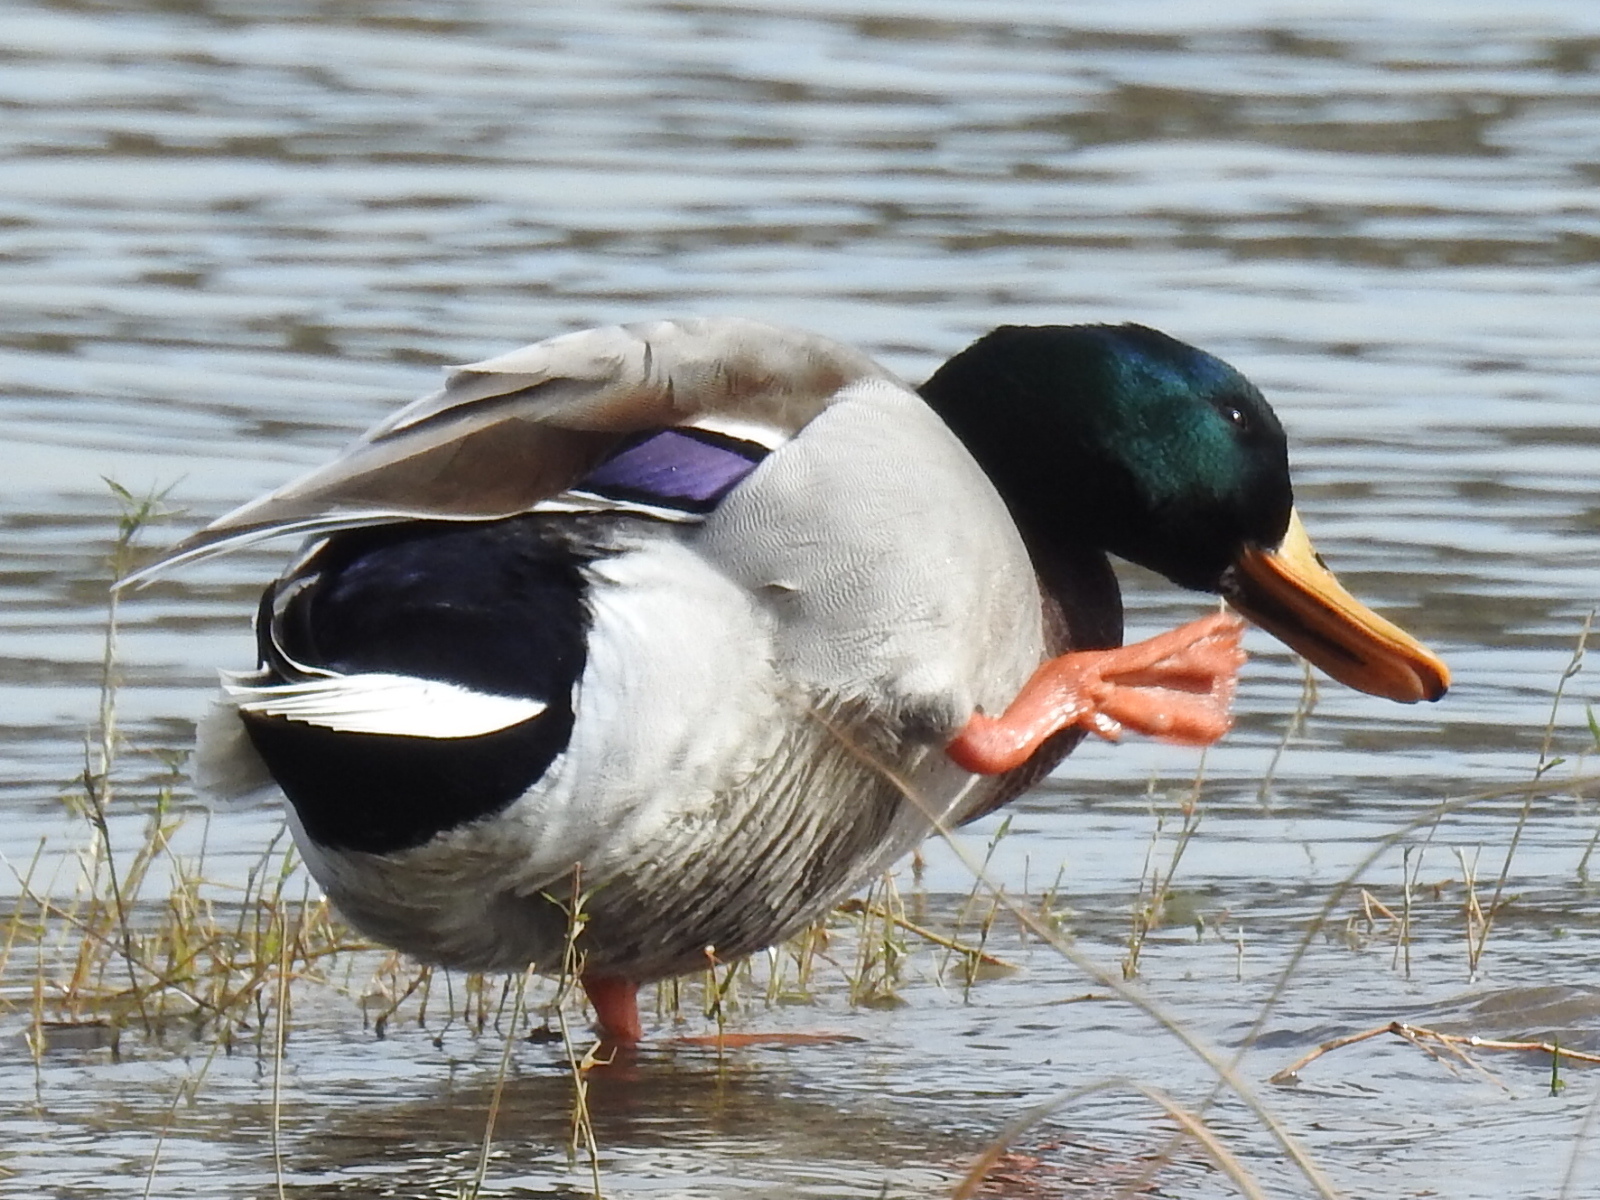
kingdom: Animalia
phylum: Chordata
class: Aves
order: Anseriformes
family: Anatidae
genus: Anas
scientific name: Anas platyrhynchos
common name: Mallard
